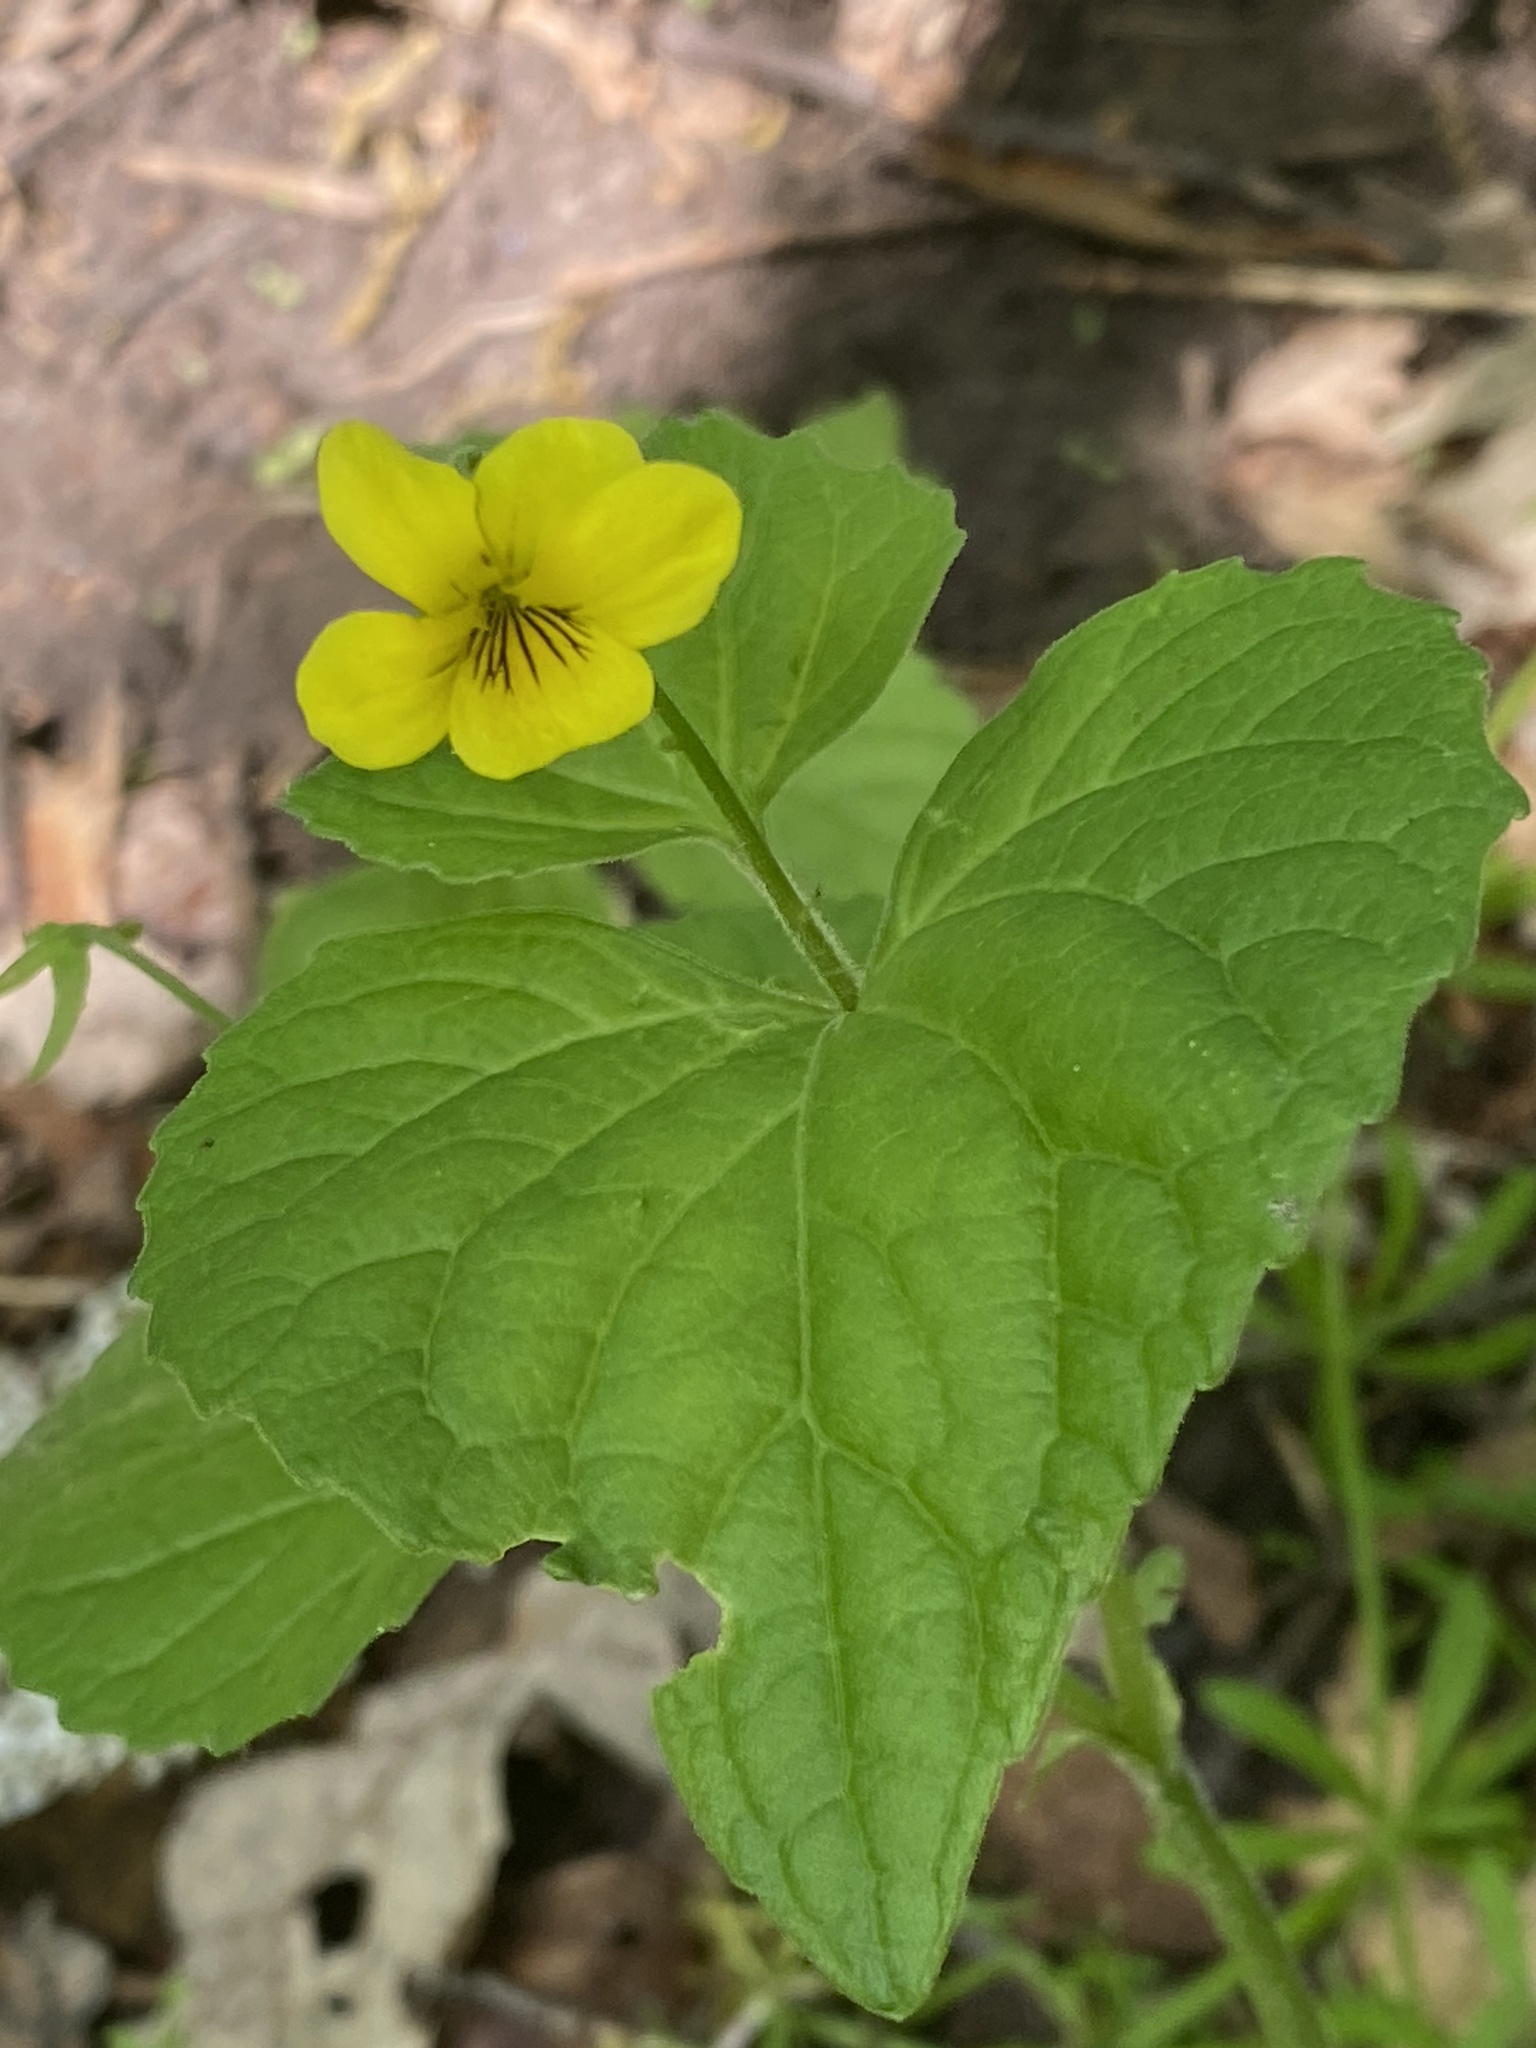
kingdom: Plantae
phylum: Tracheophyta
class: Magnoliopsida
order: Malpighiales
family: Violaceae
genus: Viola
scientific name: Viola eriocarpa
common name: Smooth yellow violet
